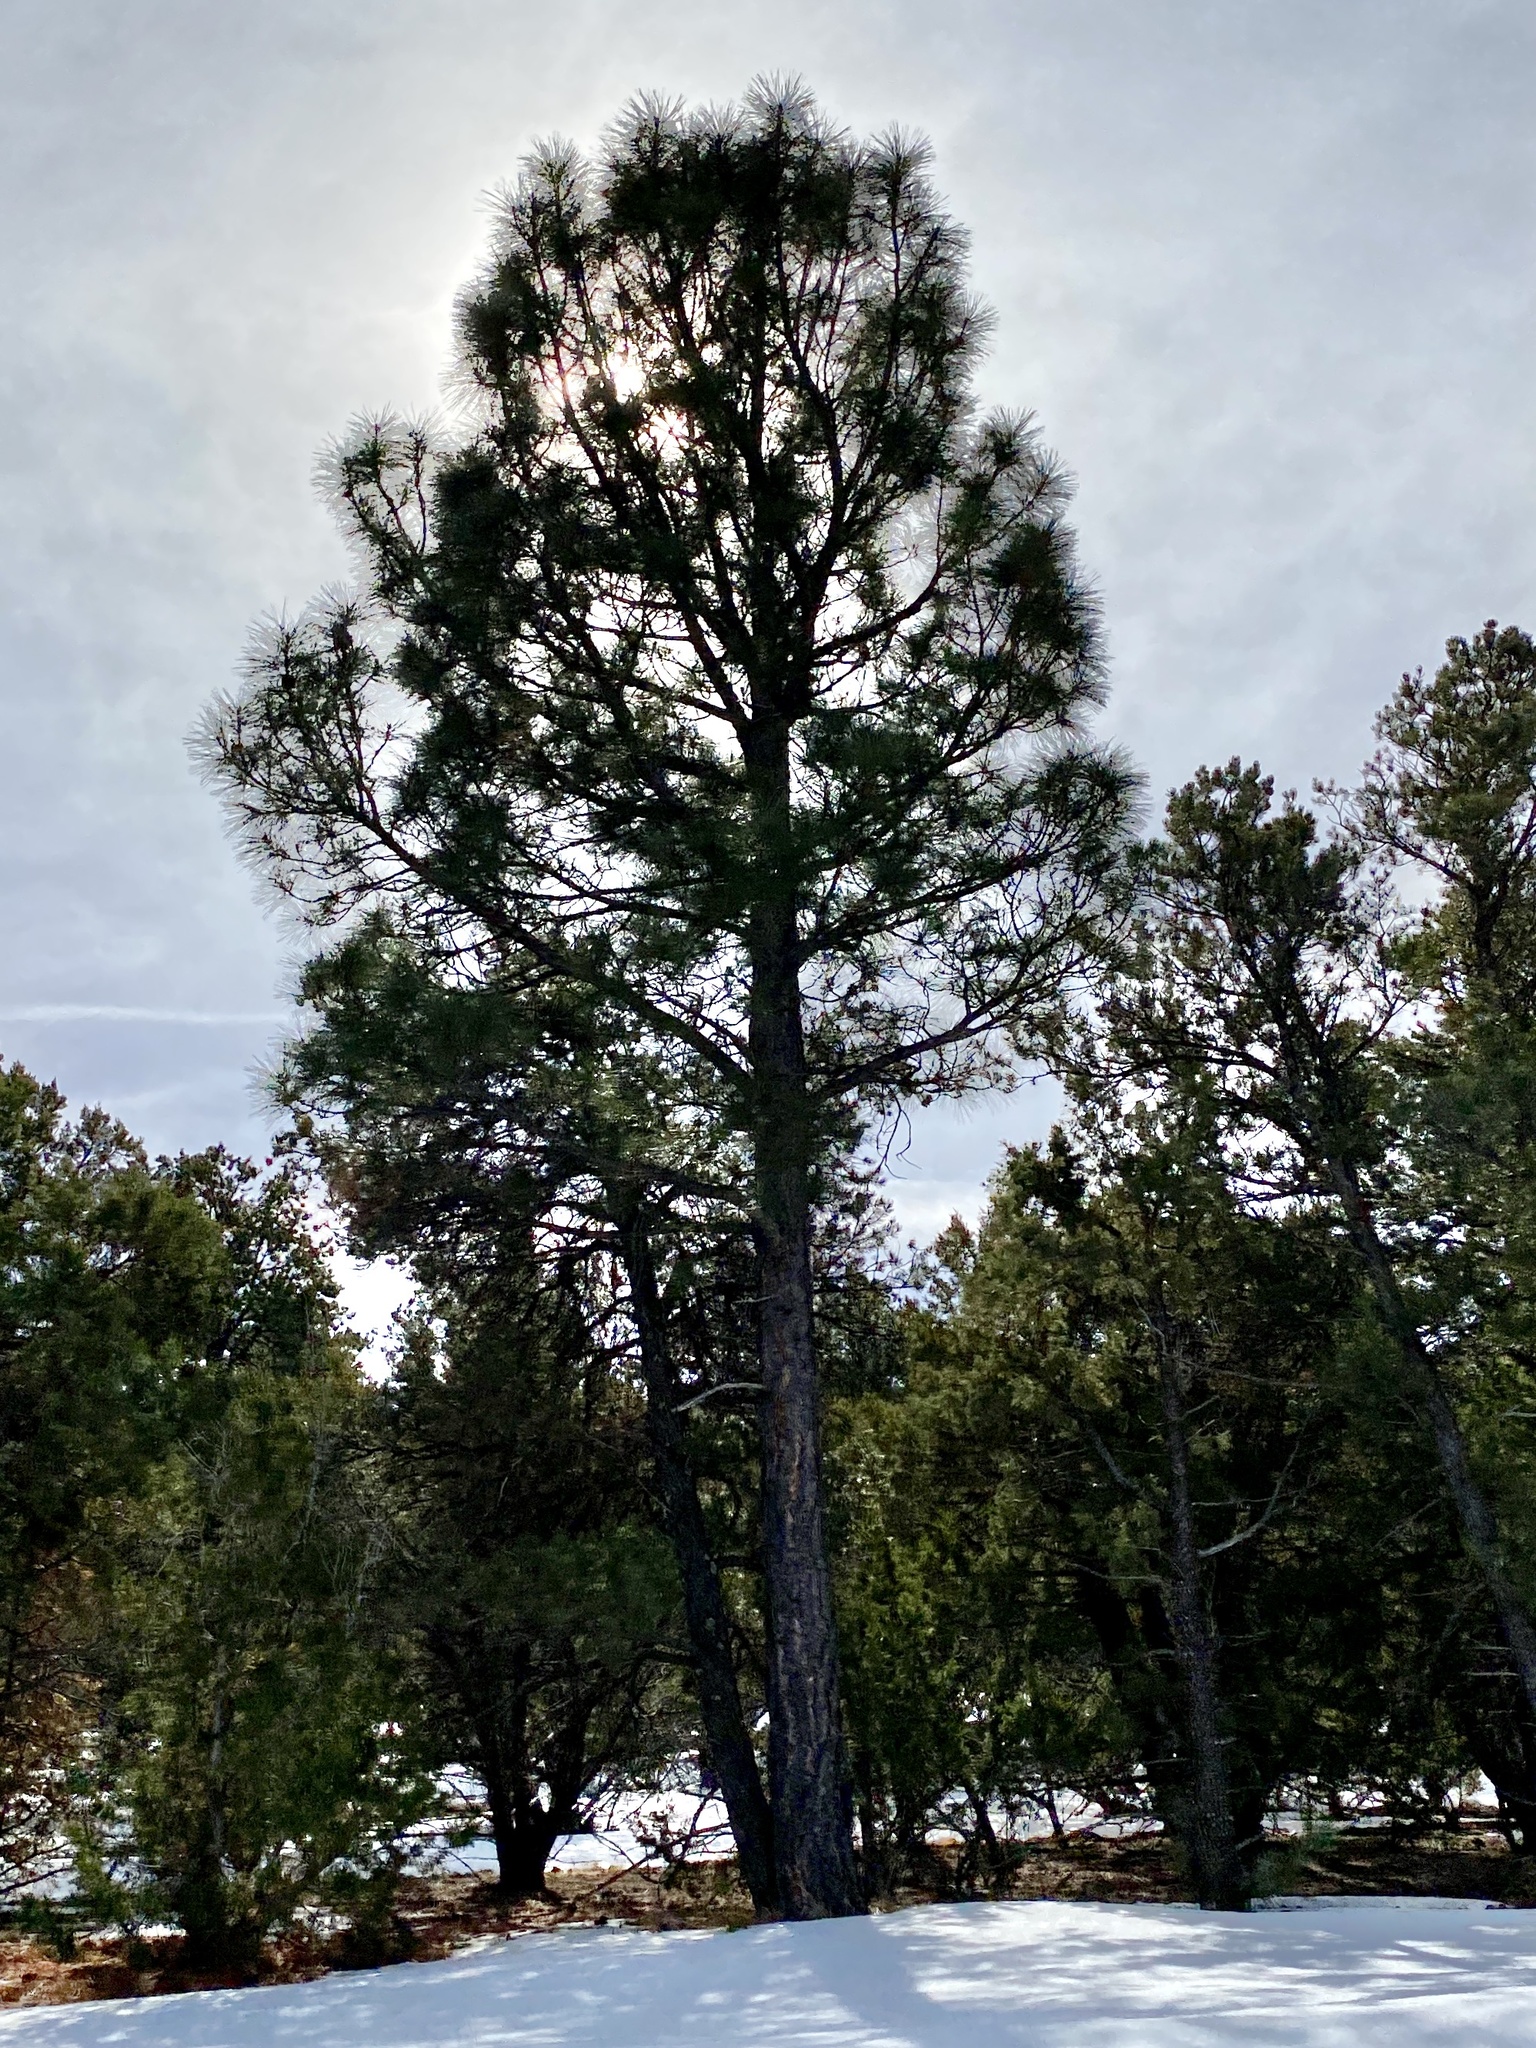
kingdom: Plantae
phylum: Tracheophyta
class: Pinopsida
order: Pinales
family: Pinaceae
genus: Pinus
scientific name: Pinus ponderosa
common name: Western yellow-pine
